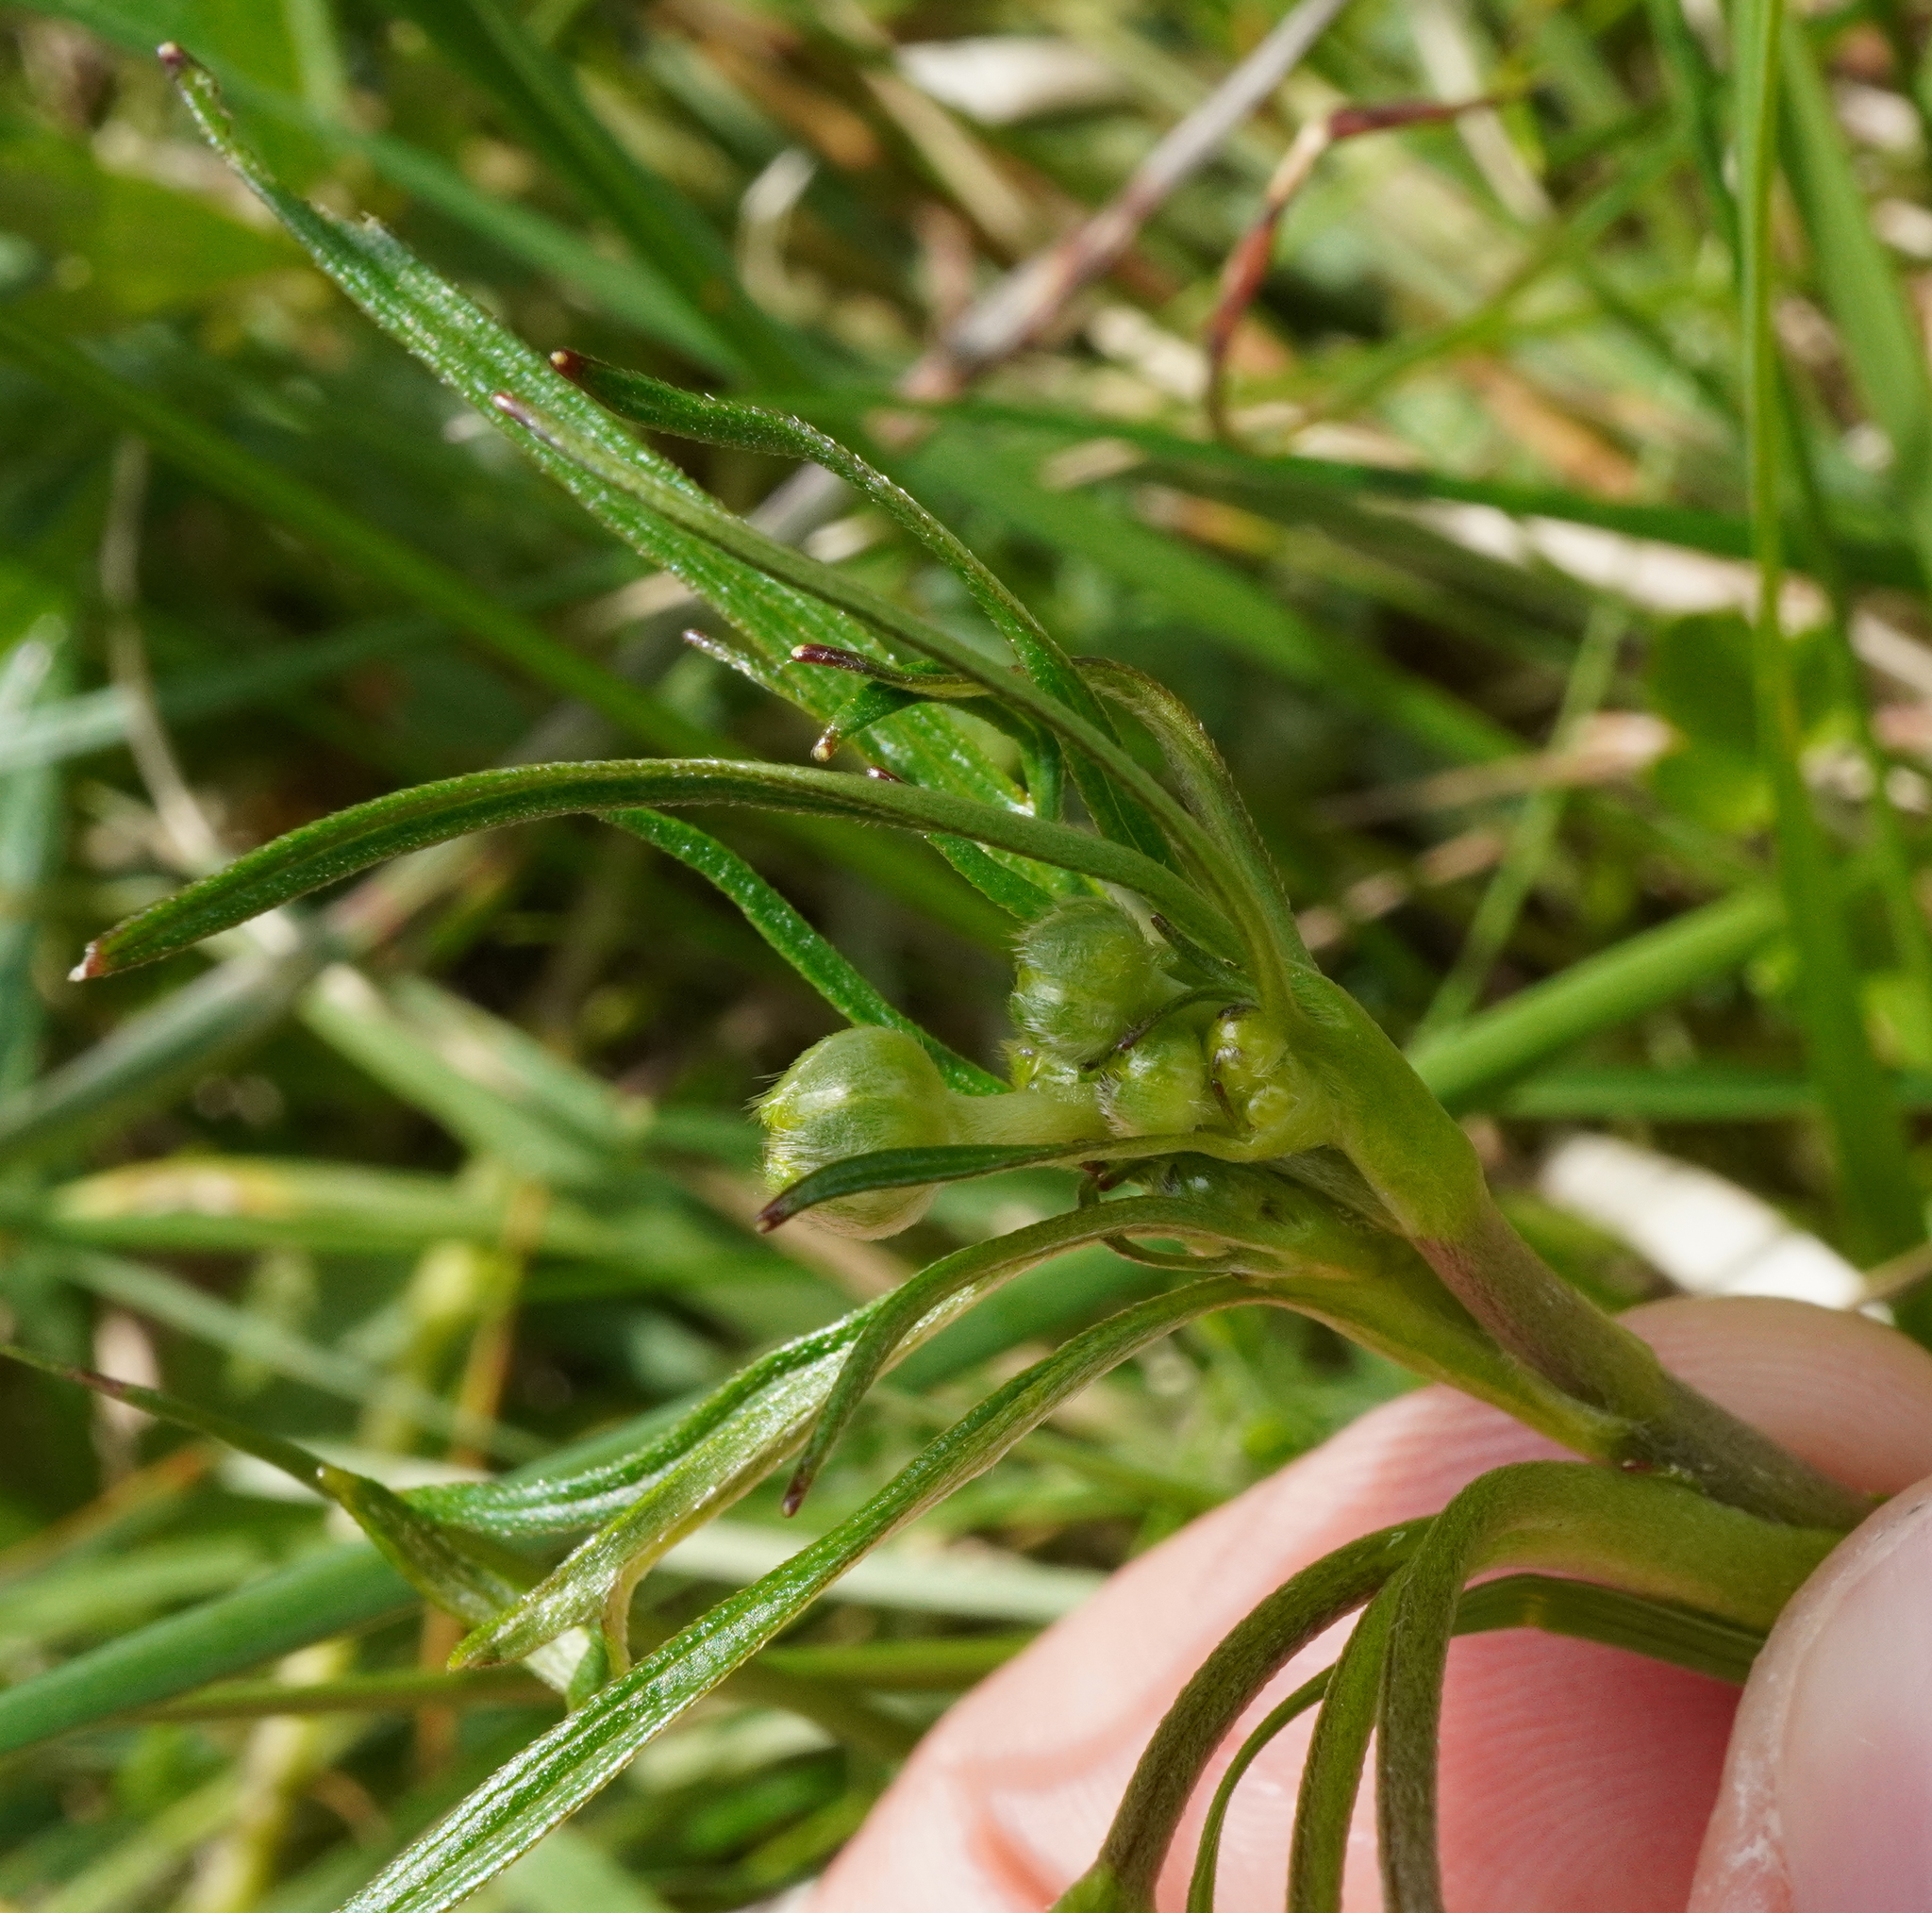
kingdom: Plantae
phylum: Tracheophyta
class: Magnoliopsida
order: Ranunculales
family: Ranunculaceae
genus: Ranunculus
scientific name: Ranunculus acris
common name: Meadow buttercup
